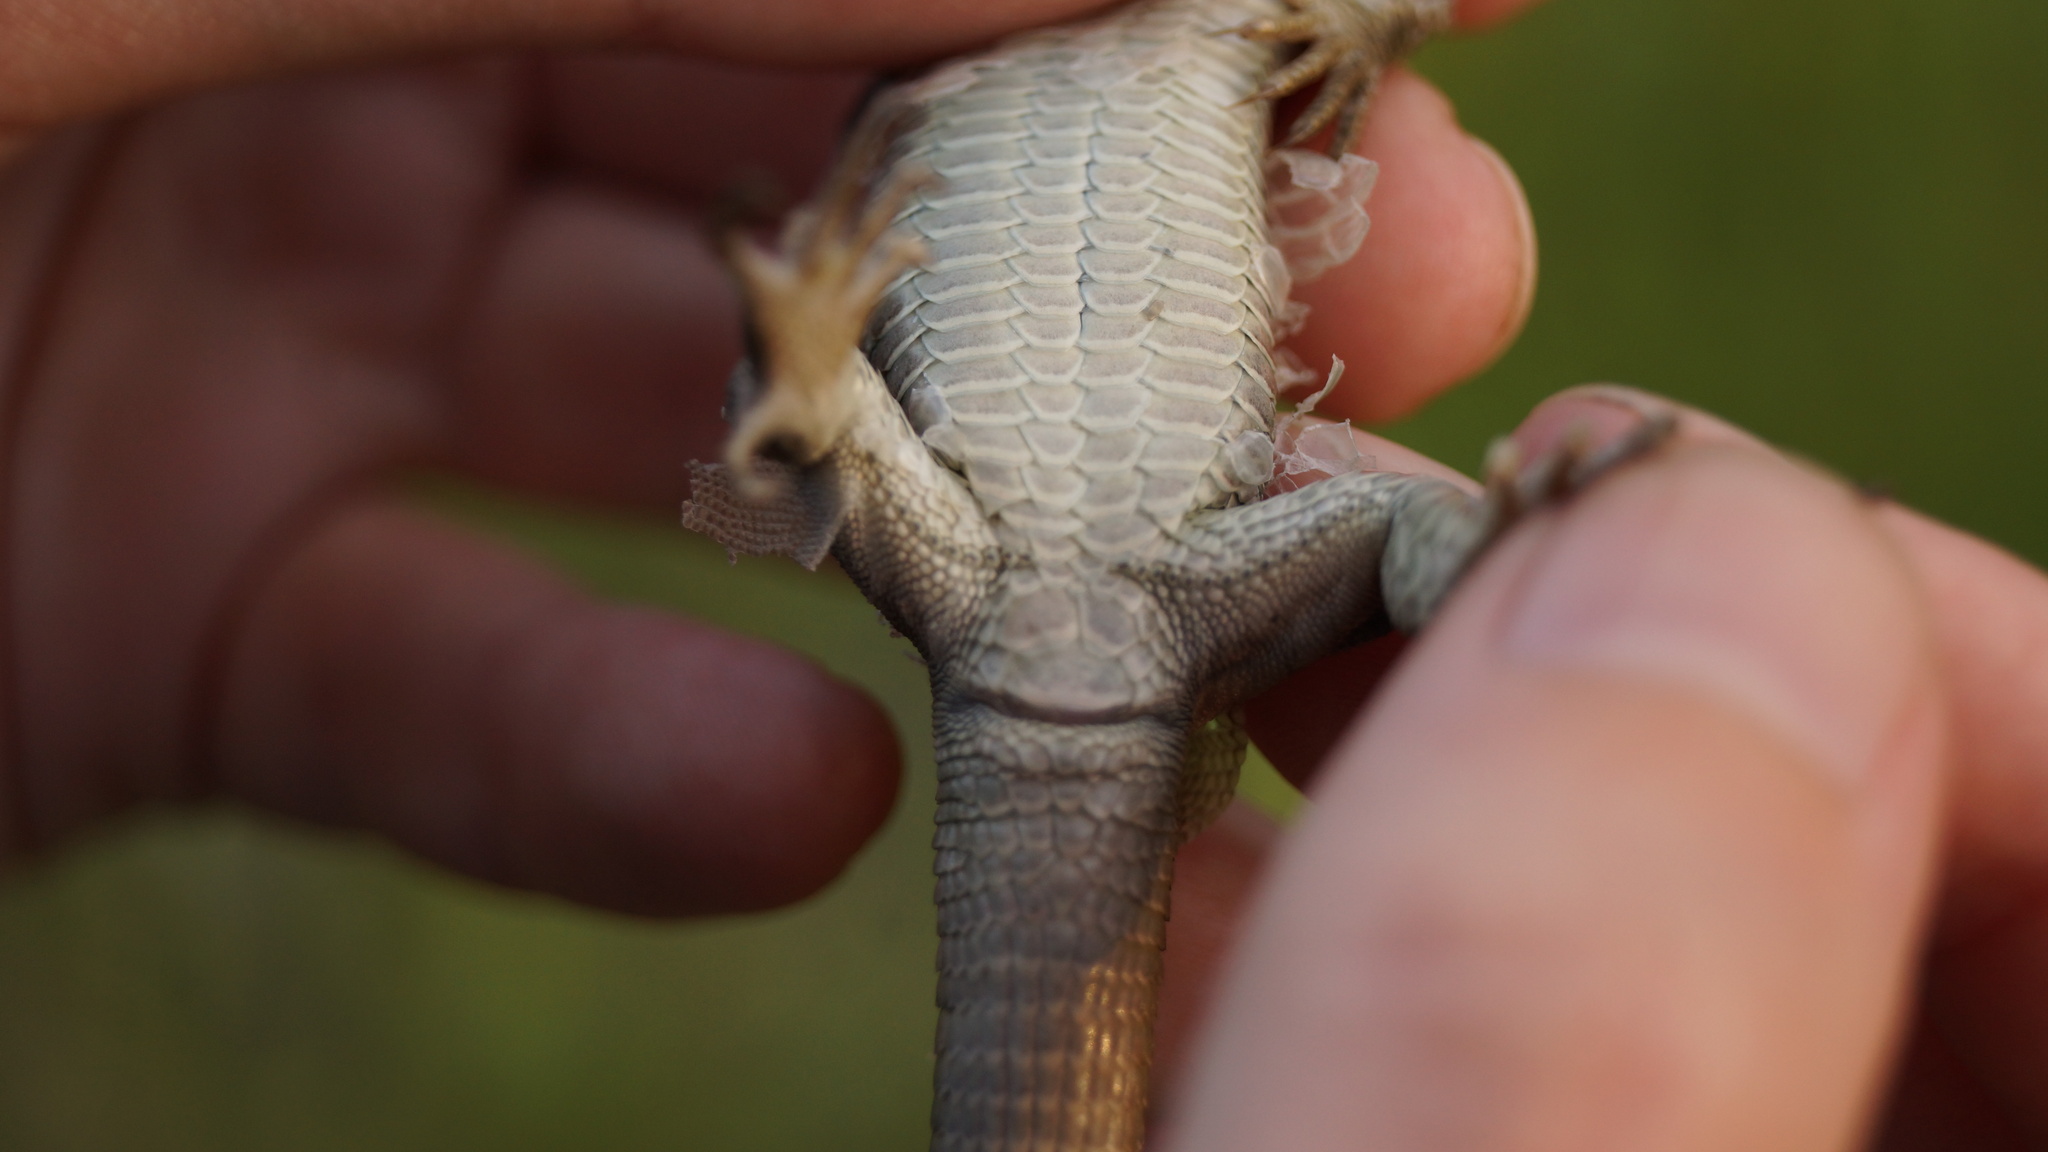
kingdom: Animalia
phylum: Chordata
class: Squamata
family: Lacertidae
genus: Lacerta
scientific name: Lacerta agilis
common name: Sand lizard
